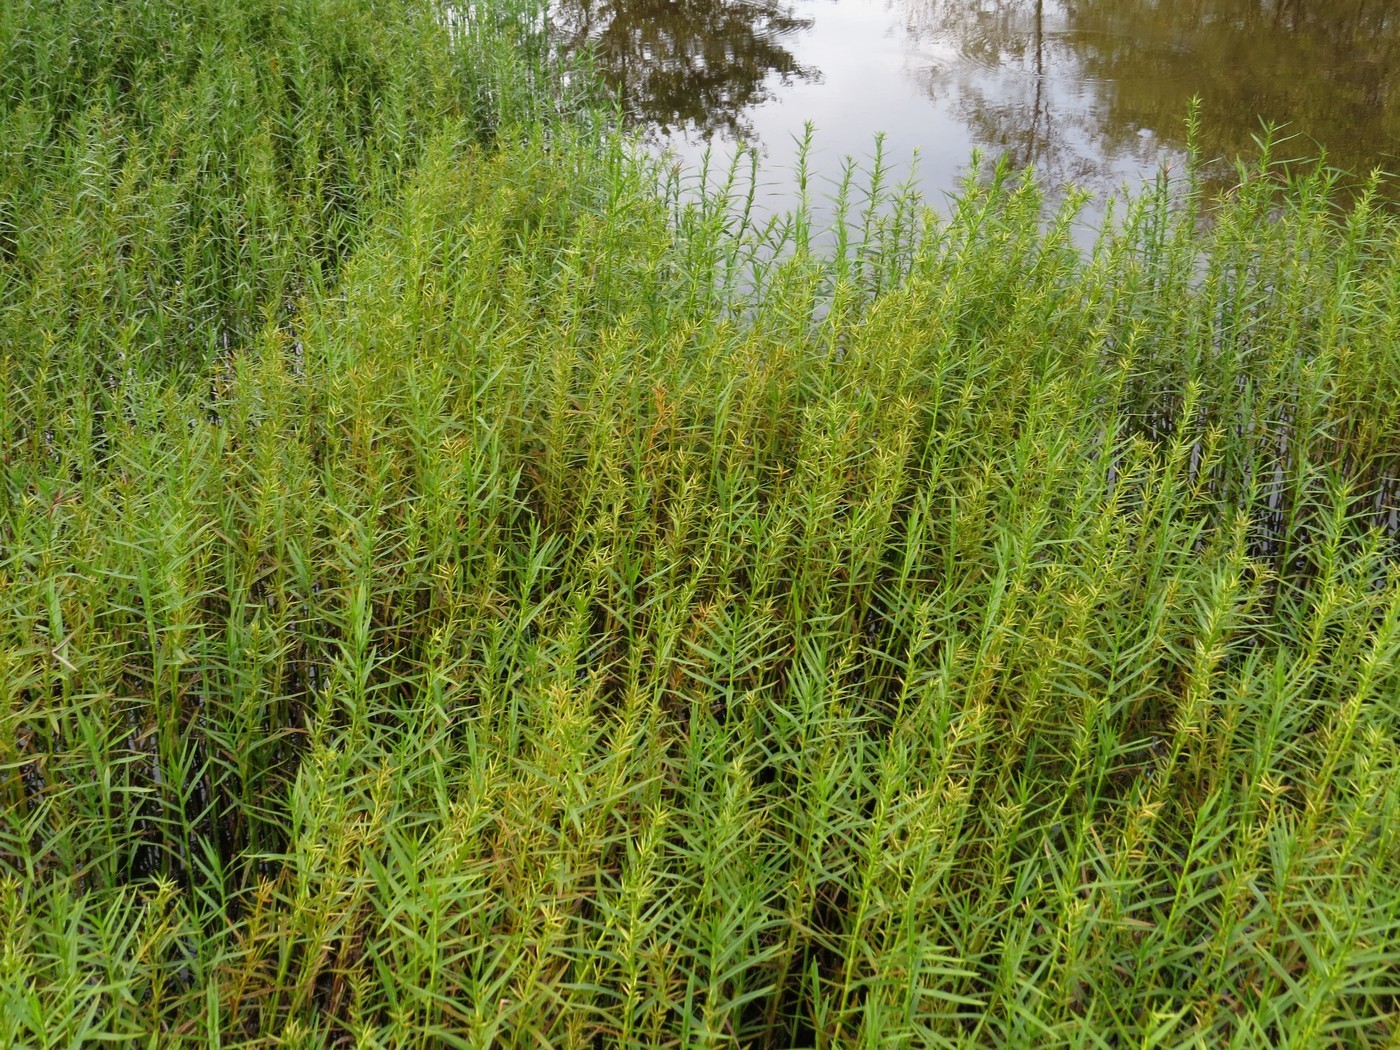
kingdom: Plantae
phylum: Tracheophyta
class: Liliopsida
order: Poales
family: Cyperaceae
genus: Dulichium
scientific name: Dulichium arundinaceum
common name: Three-way sedge
